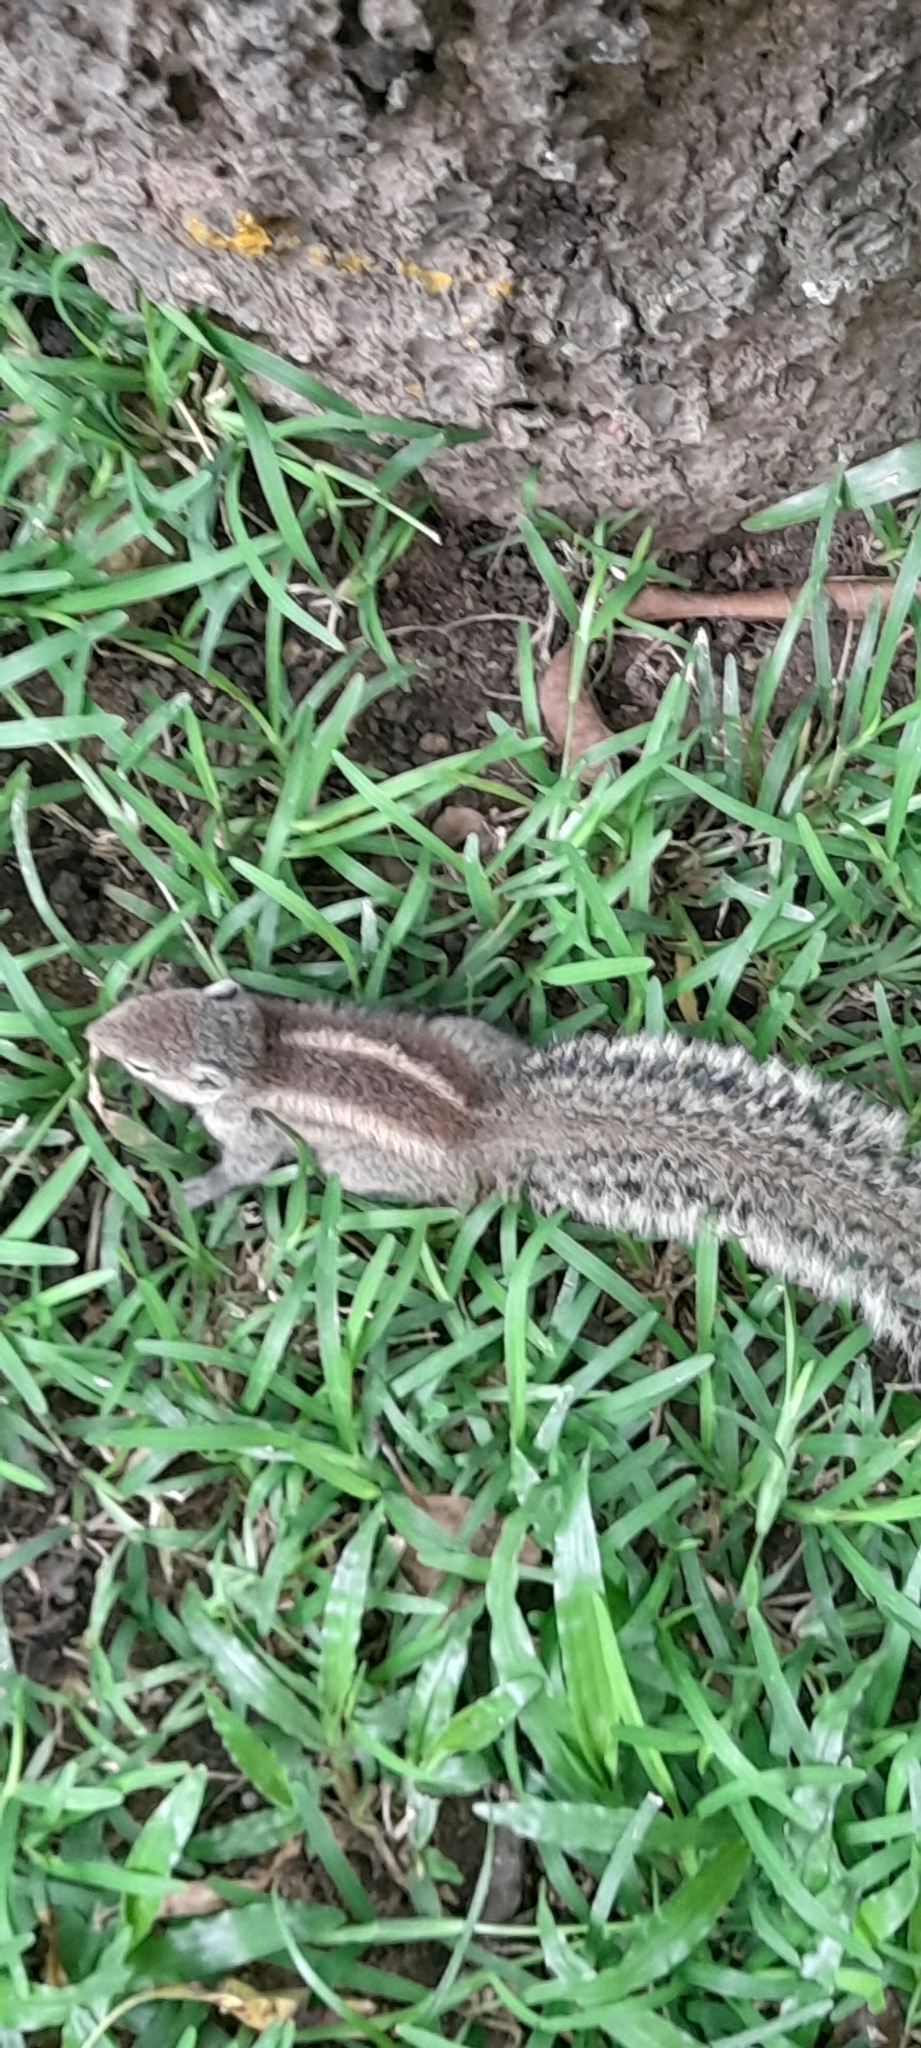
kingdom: Animalia
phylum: Chordata
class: Mammalia
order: Rodentia
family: Sciuridae
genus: Funambulus
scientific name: Funambulus palmarum
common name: Indian palm squirrel
